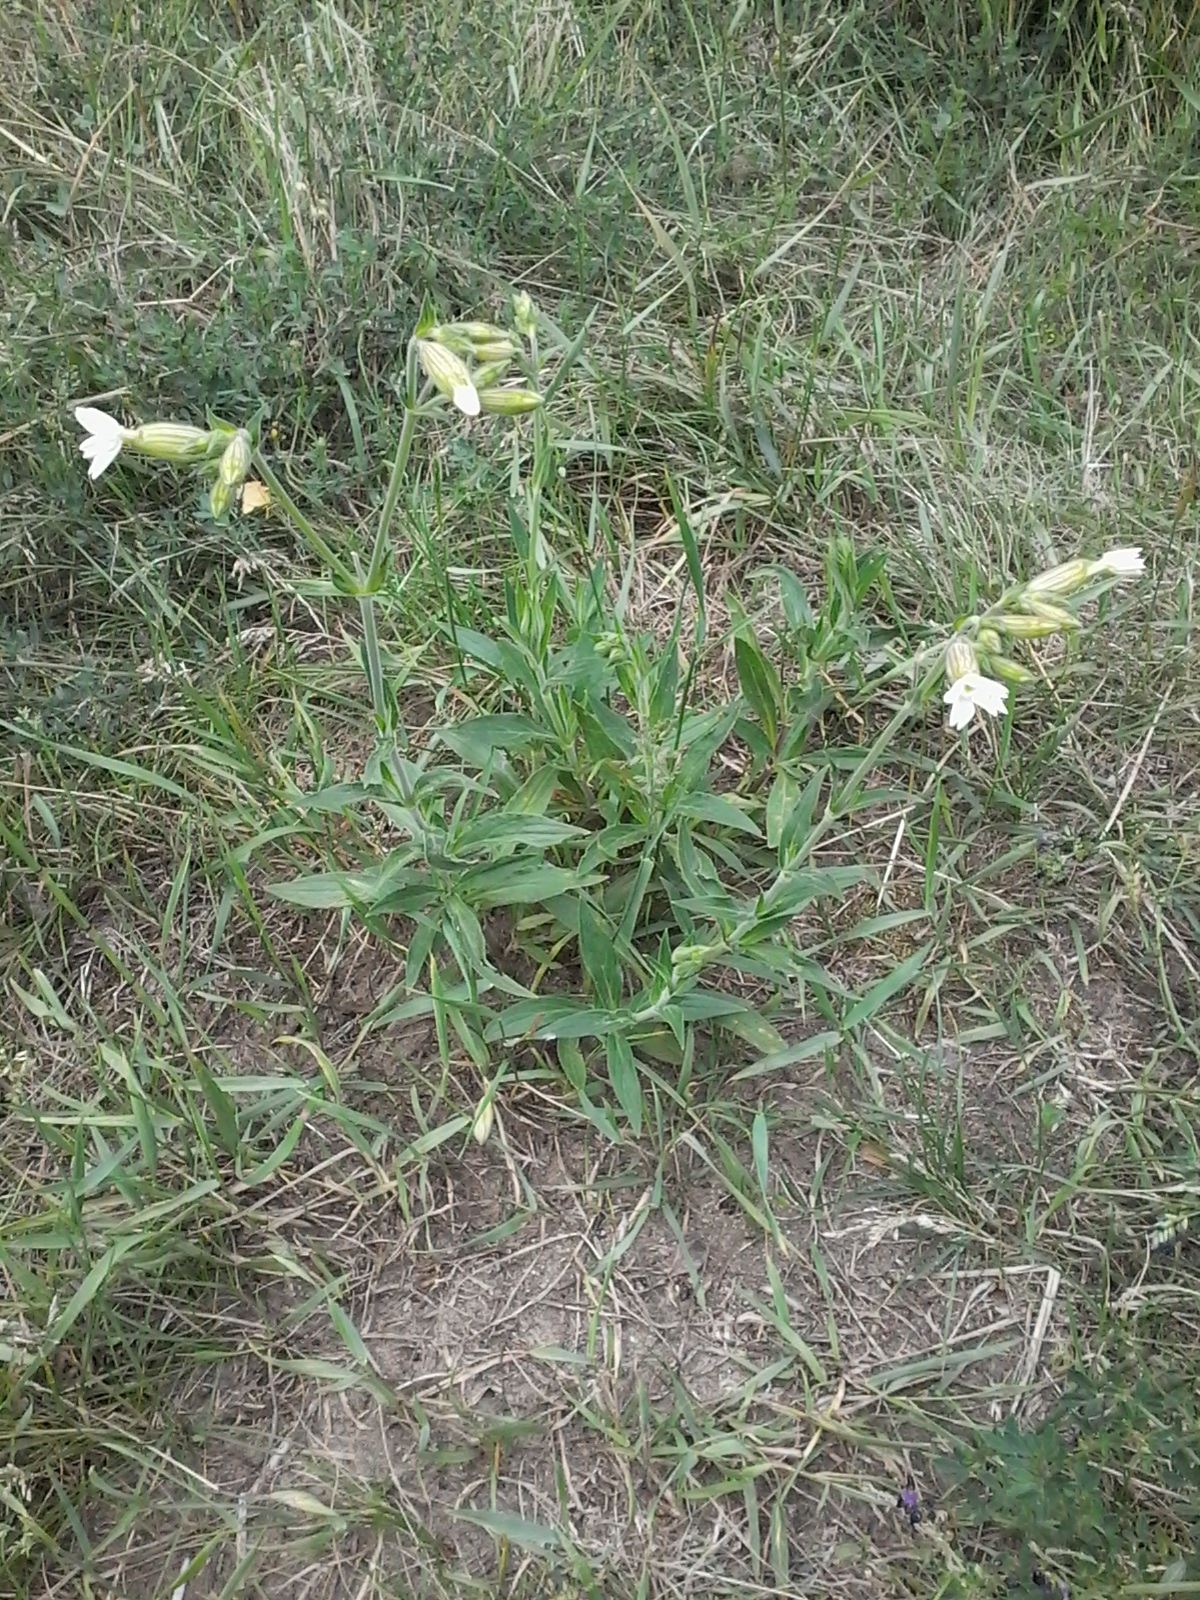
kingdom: Plantae
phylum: Tracheophyta
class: Magnoliopsida
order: Caryophyllales
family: Caryophyllaceae
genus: Silene
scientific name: Silene latifolia
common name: White campion
